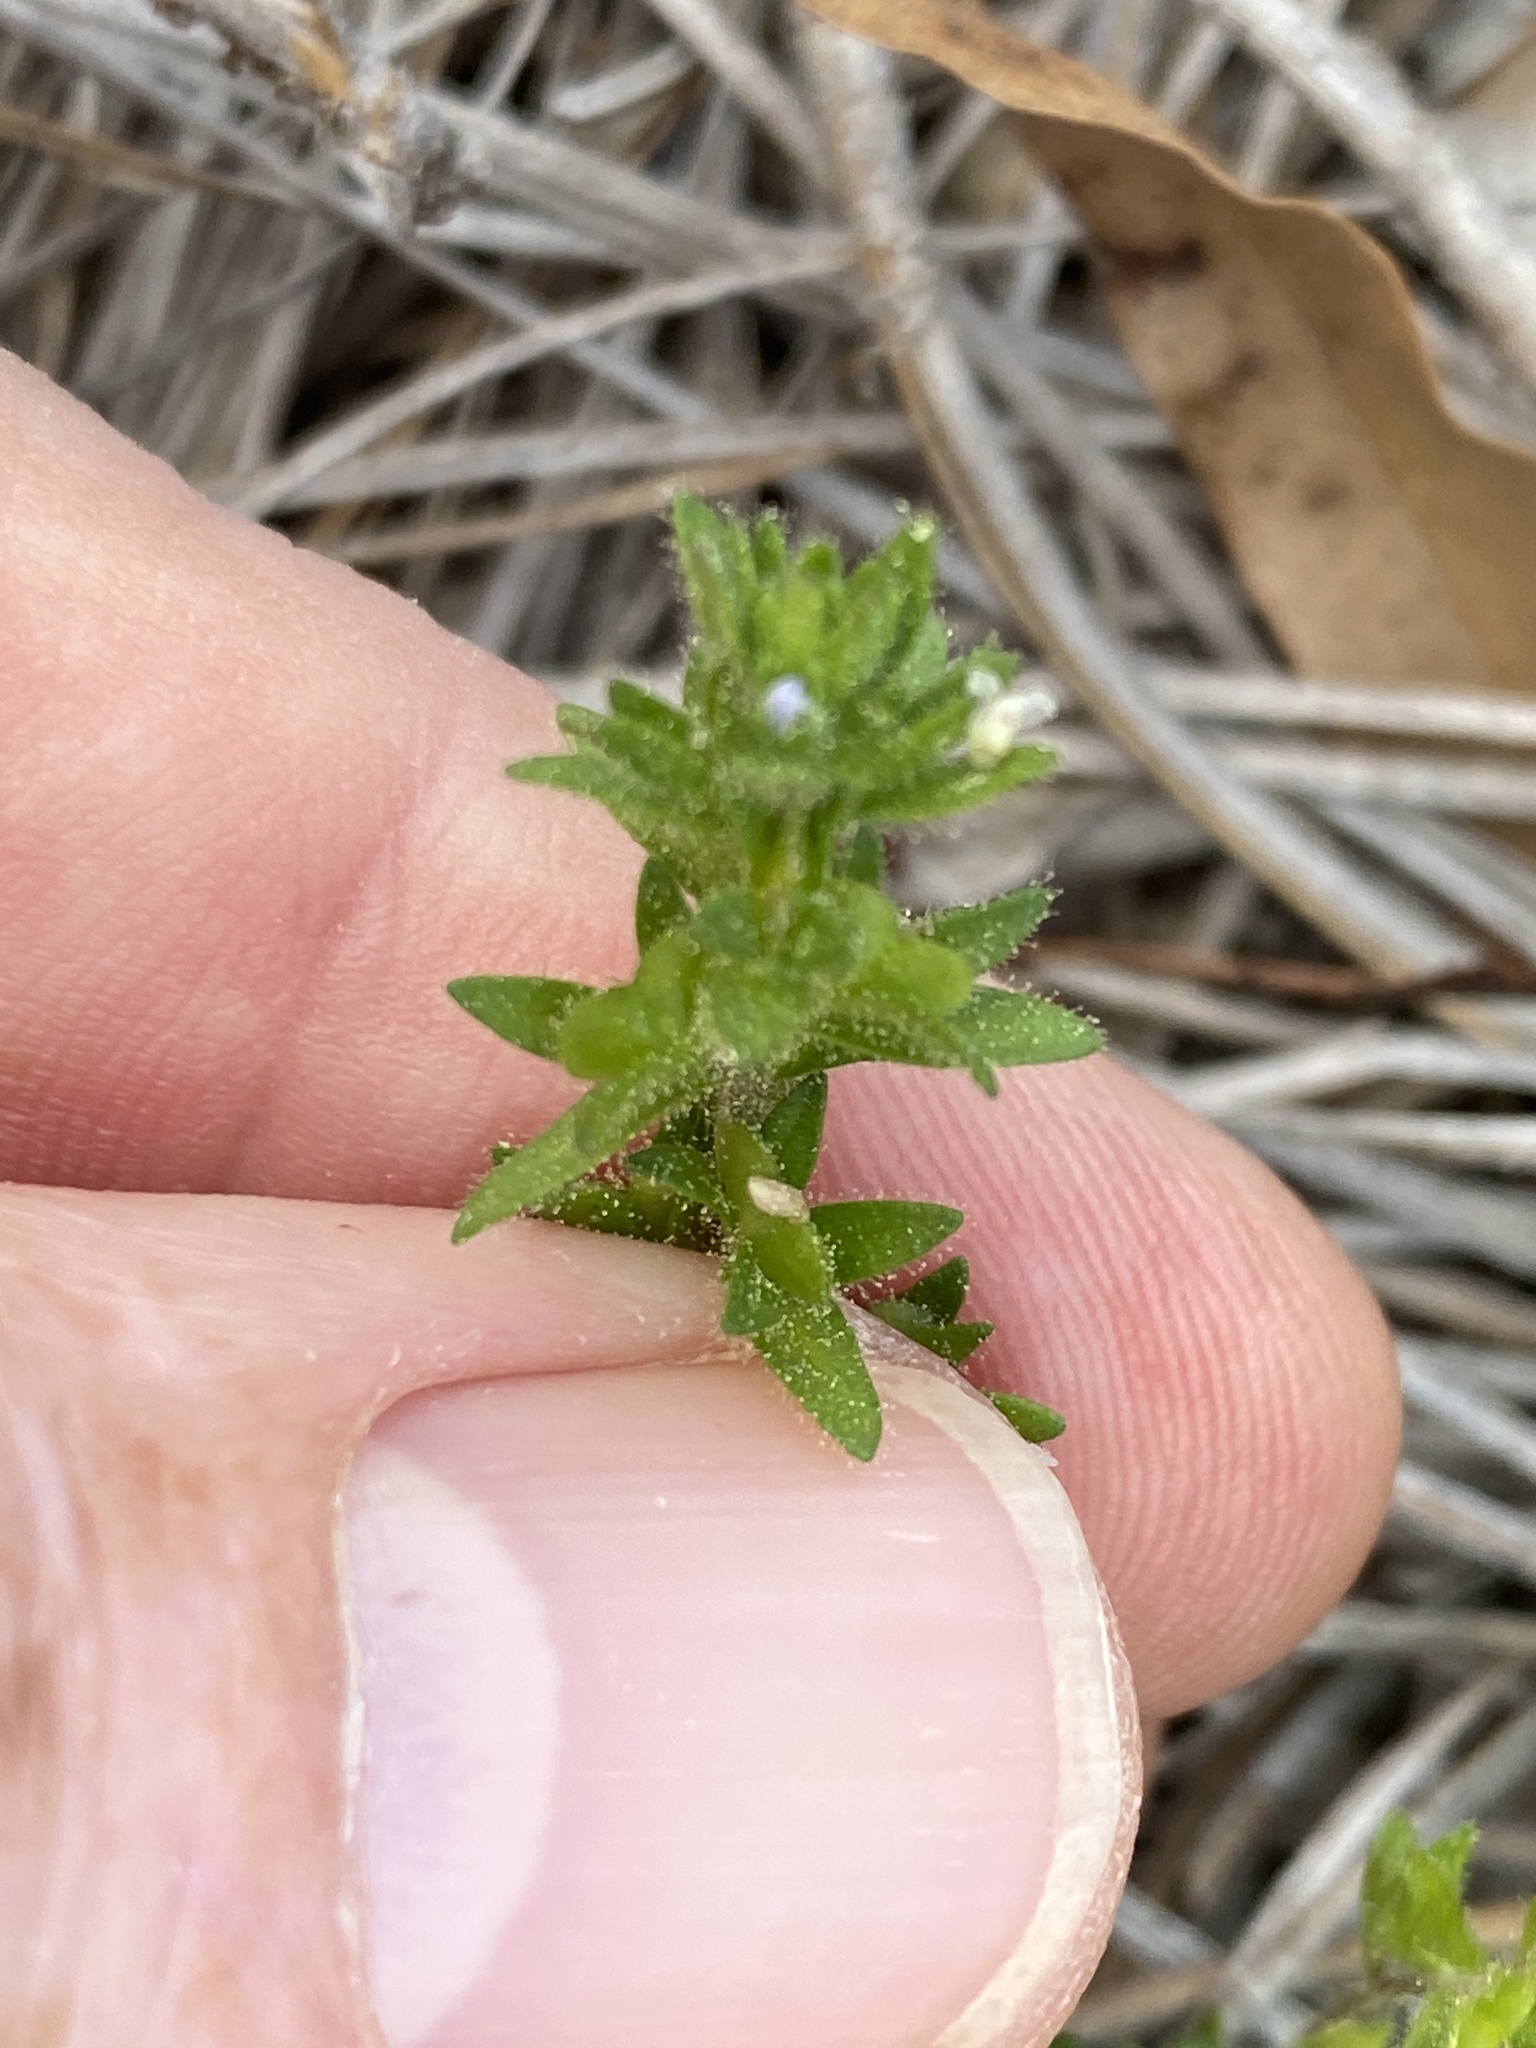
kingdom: Plantae
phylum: Tracheophyta
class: Magnoliopsida
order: Lamiales
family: Plantaginaceae
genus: Veronica
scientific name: Veronica arvensis
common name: Corn speedwell
